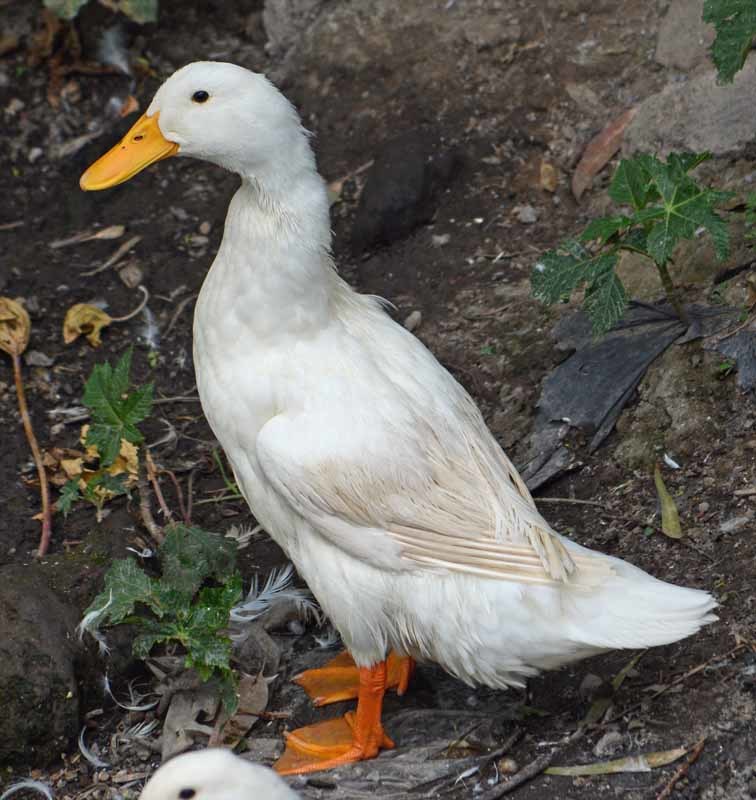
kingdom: Animalia
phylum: Chordata
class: Aves
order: Anseriformes
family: Anatidae
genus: Anas
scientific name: Anas platyrhynchos
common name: Mallard
